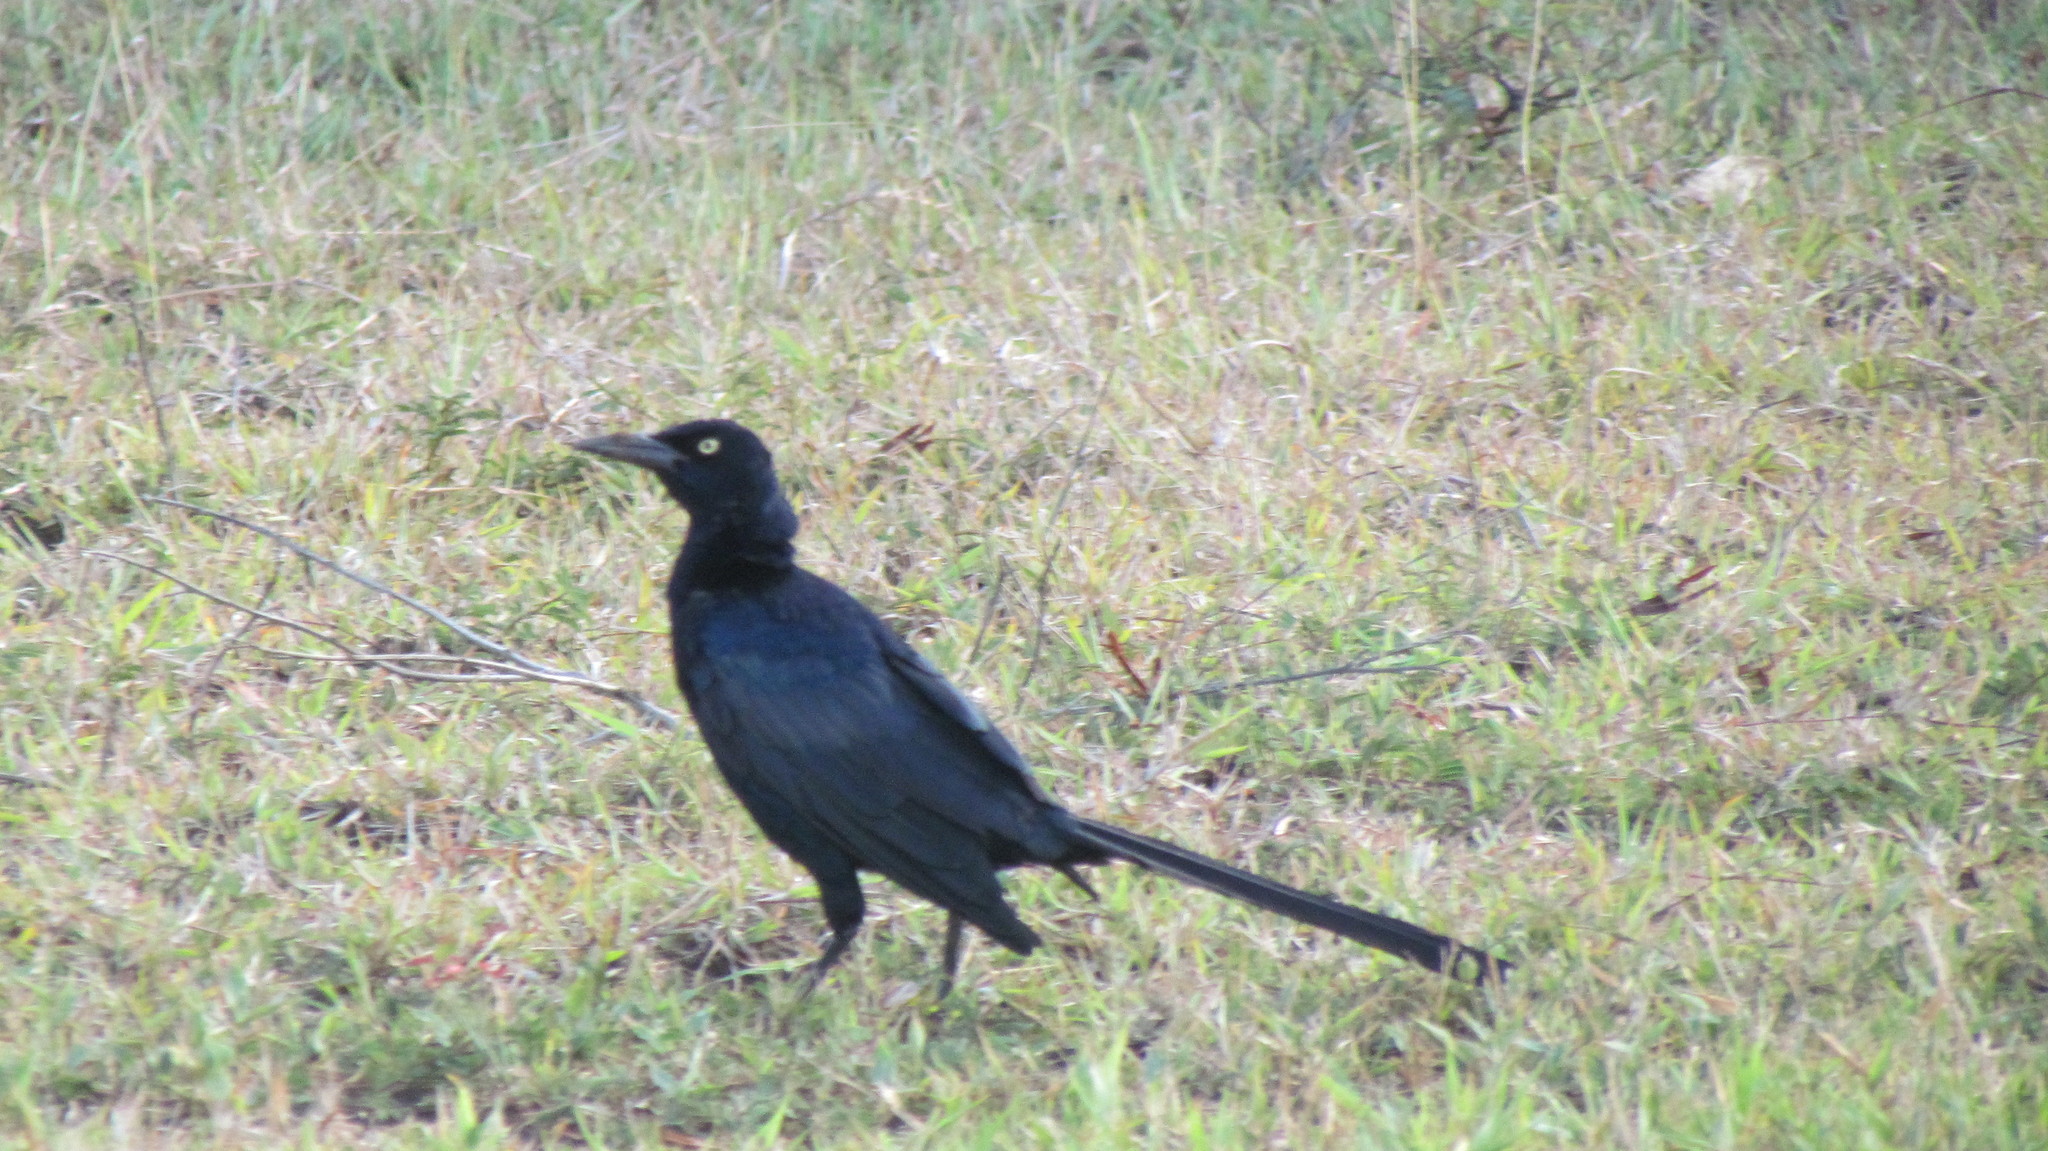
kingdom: Animalia
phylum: Chordata
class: Aves
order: Passeriformes
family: Icteridae
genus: Quiscalus
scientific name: Quiscalus mexicanus
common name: Great-tailed grackle
